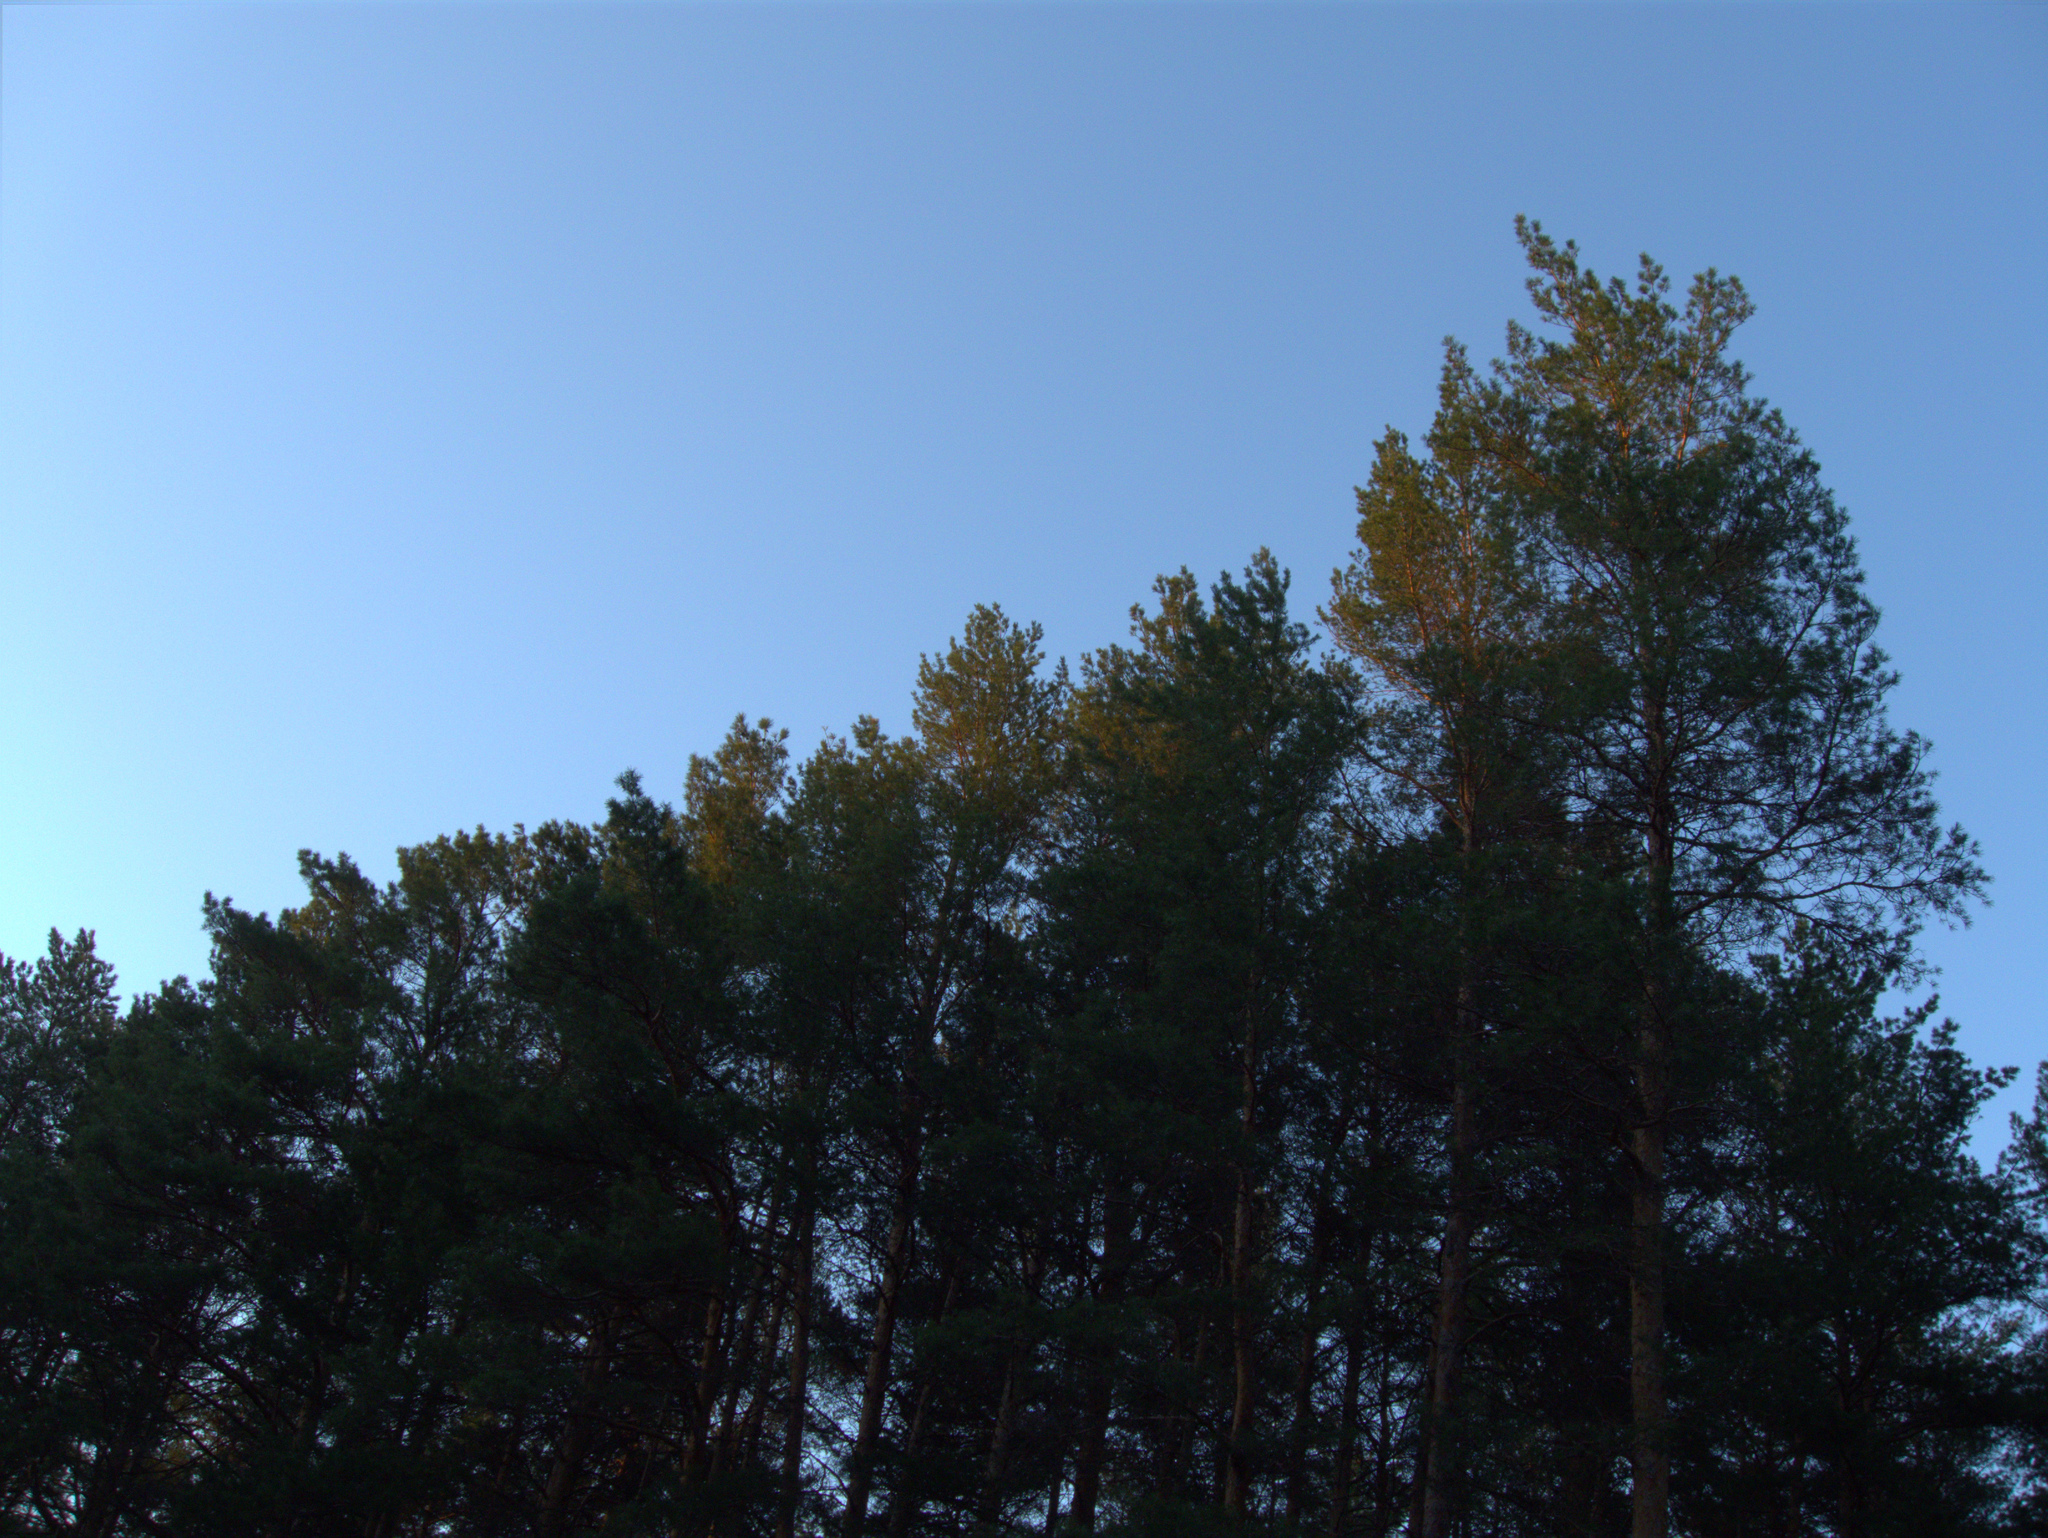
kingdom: Plantae
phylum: Tracheophyta
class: Pinopsida
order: Pinales
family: Pinaceae
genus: Pinus
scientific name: Pinus sylvestris
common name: Scots pine
